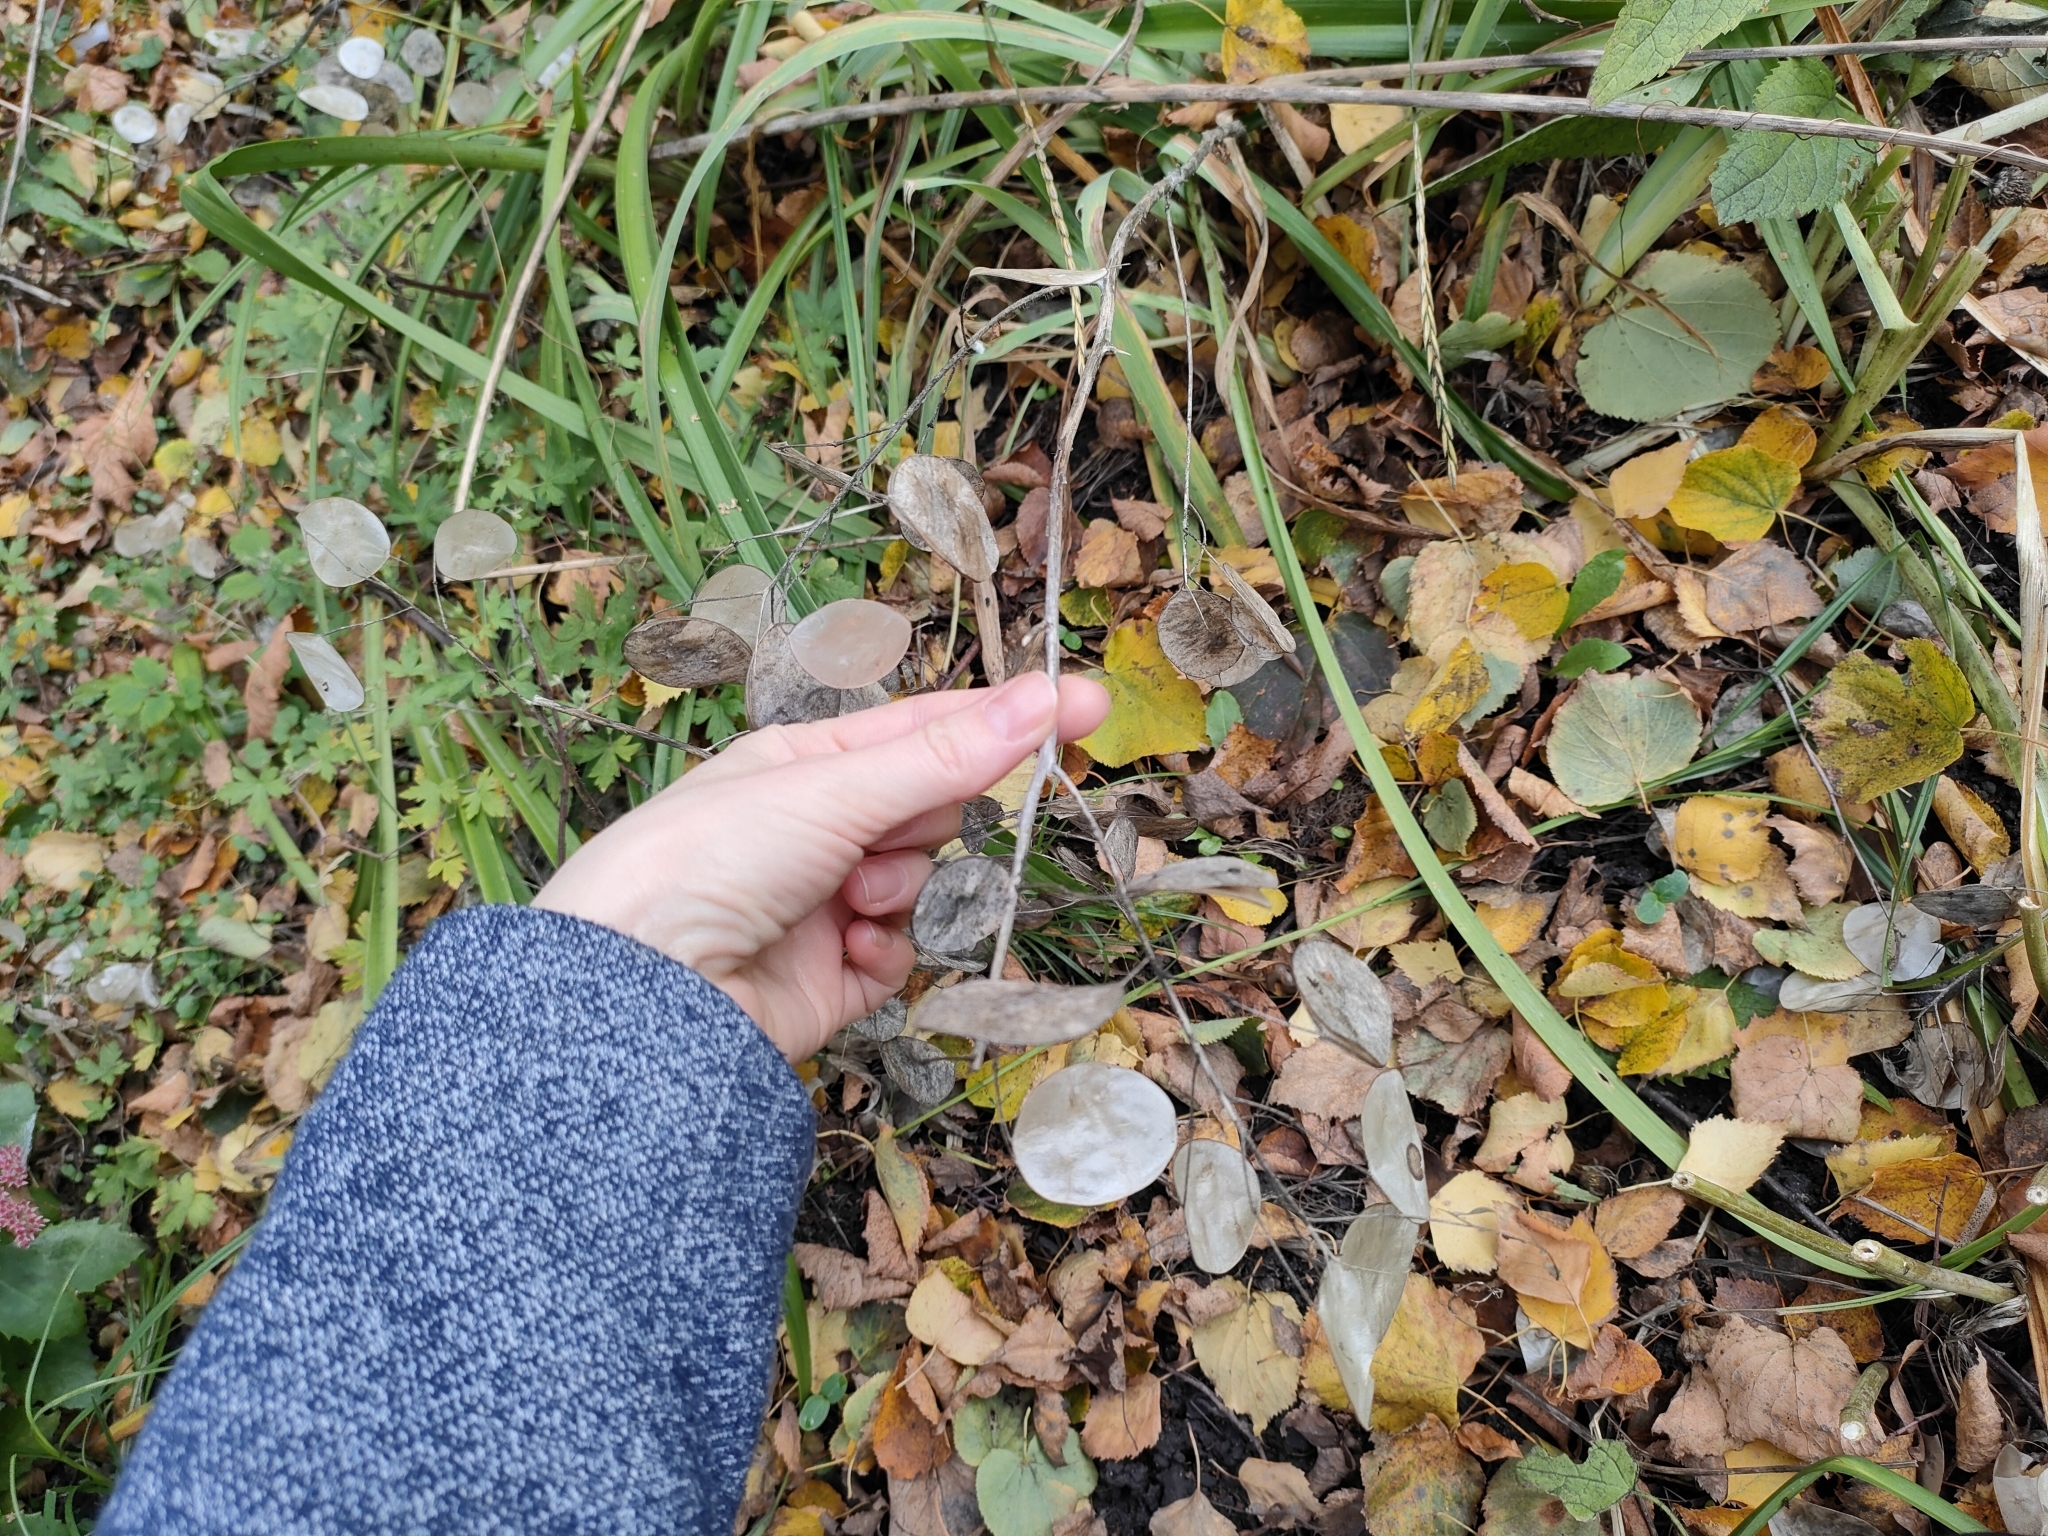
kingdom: Plantae
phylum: Tracheophyta
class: Magnoliopsida
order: Brassicales
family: Brassicaceae
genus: Lunaria
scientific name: Lunaria annua
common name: Honesty
